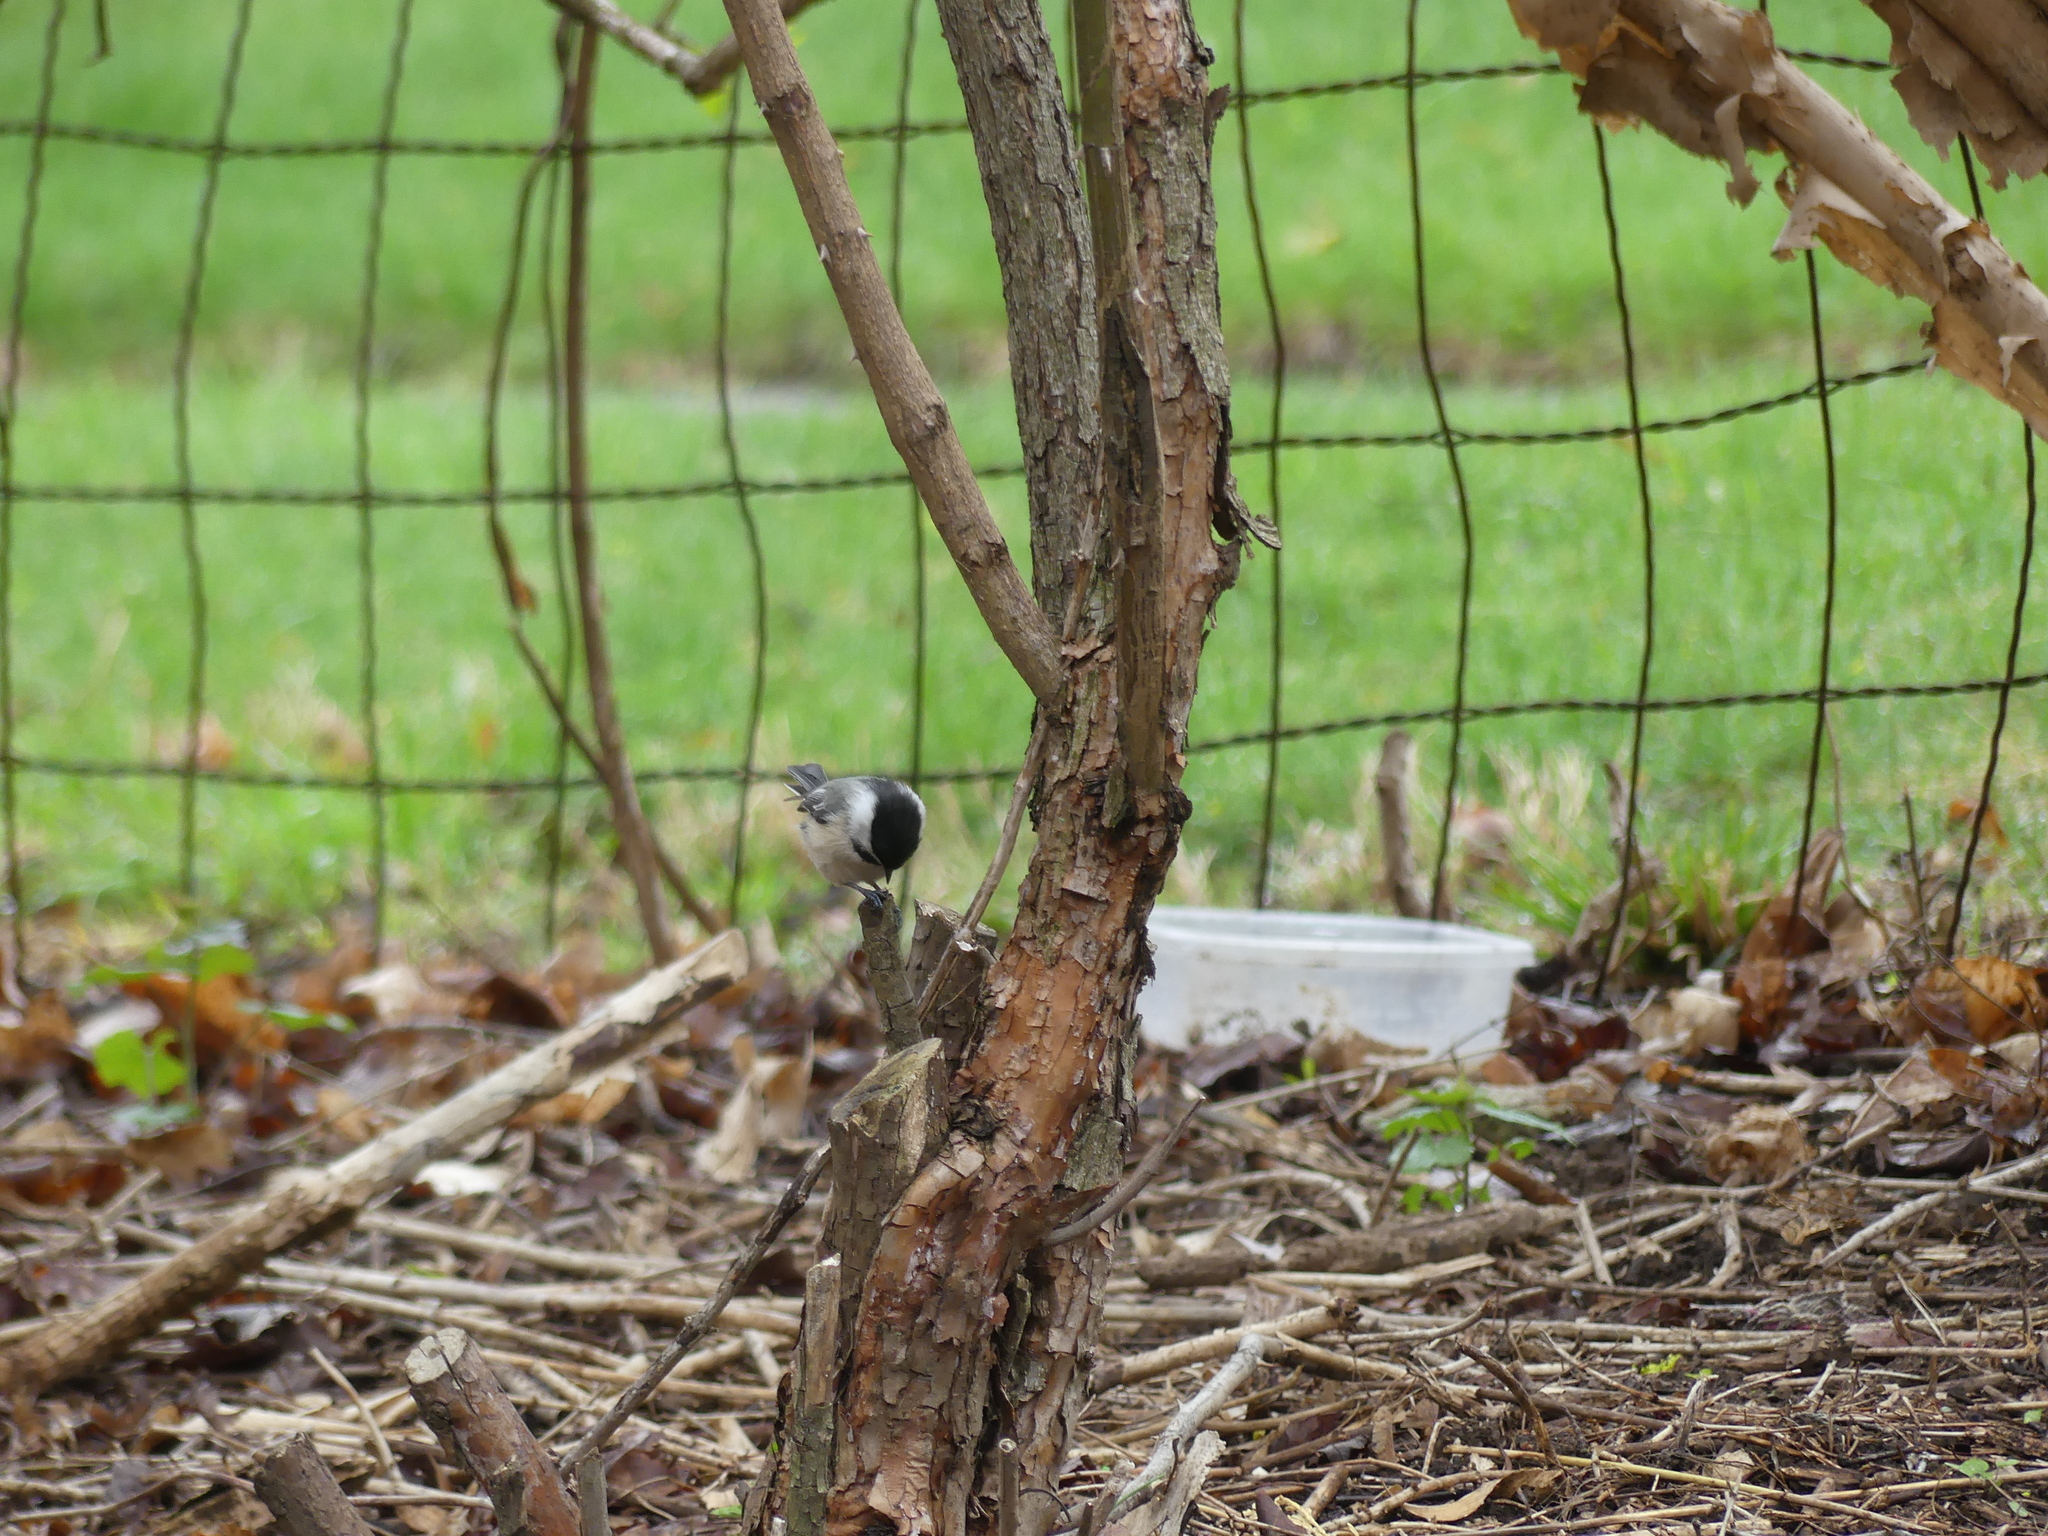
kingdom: Animalia
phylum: Chordata
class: Aves
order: Passeriformes
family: Paridae
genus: Poecile
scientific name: Poecile atricapillus
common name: Black-capped chickadee
